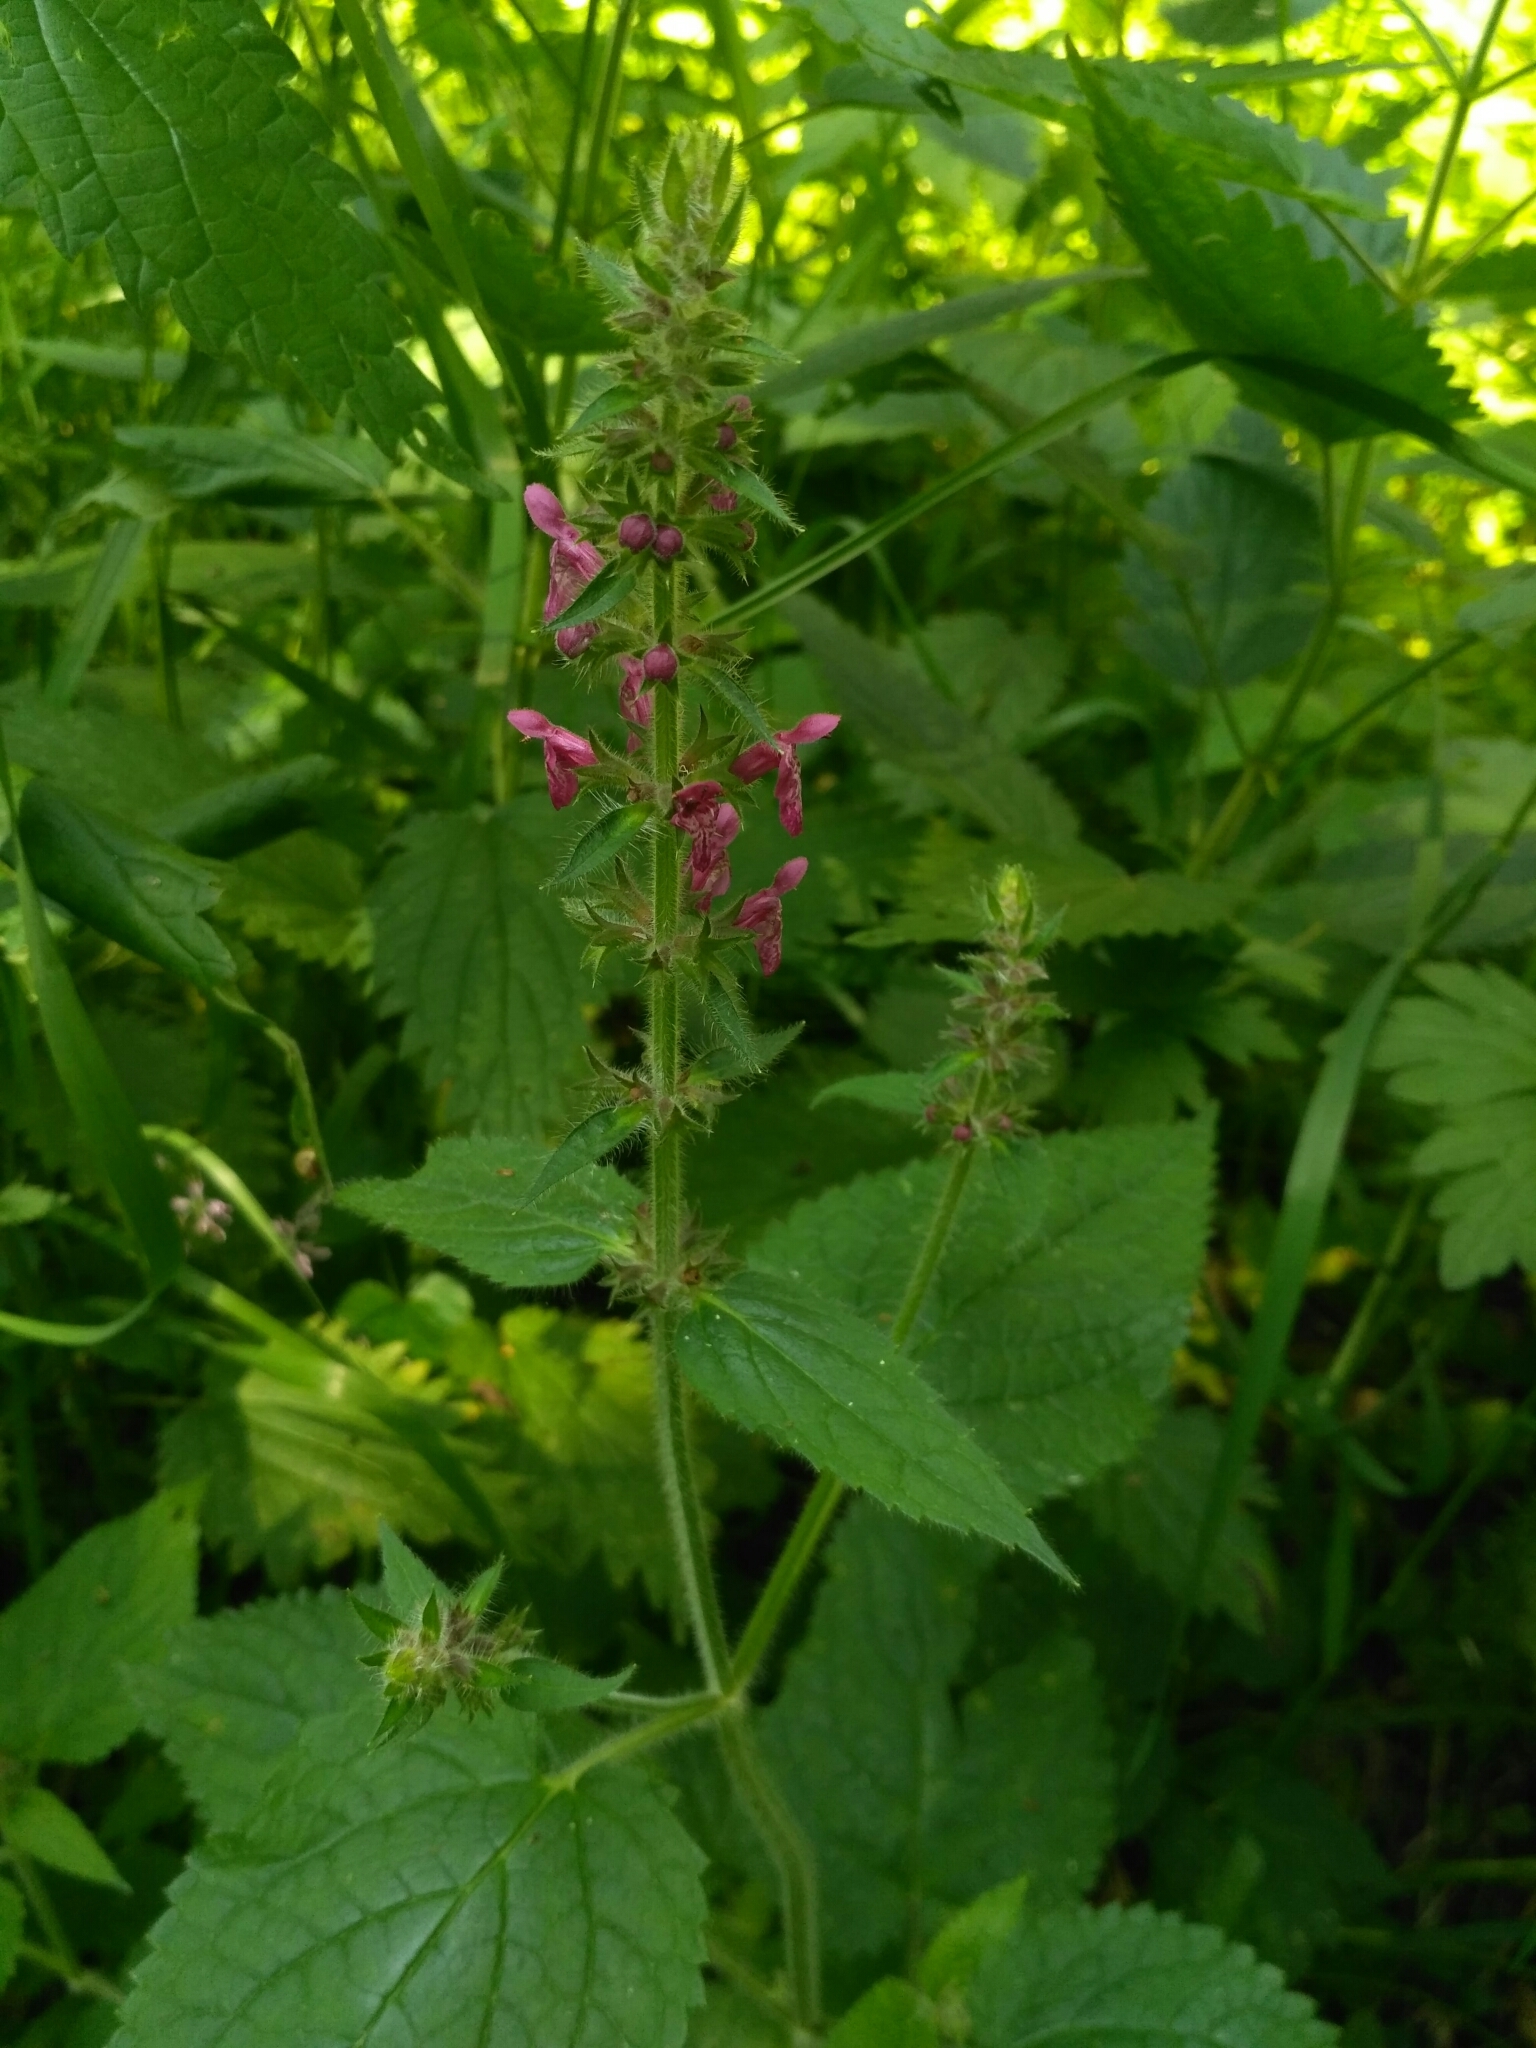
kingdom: Plantae
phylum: Tracheophyta
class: Magnoliopsida
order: Lamiales
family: Lamiaceae
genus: Stachys
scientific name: Stachys sylvatica
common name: Hedge woundwort
